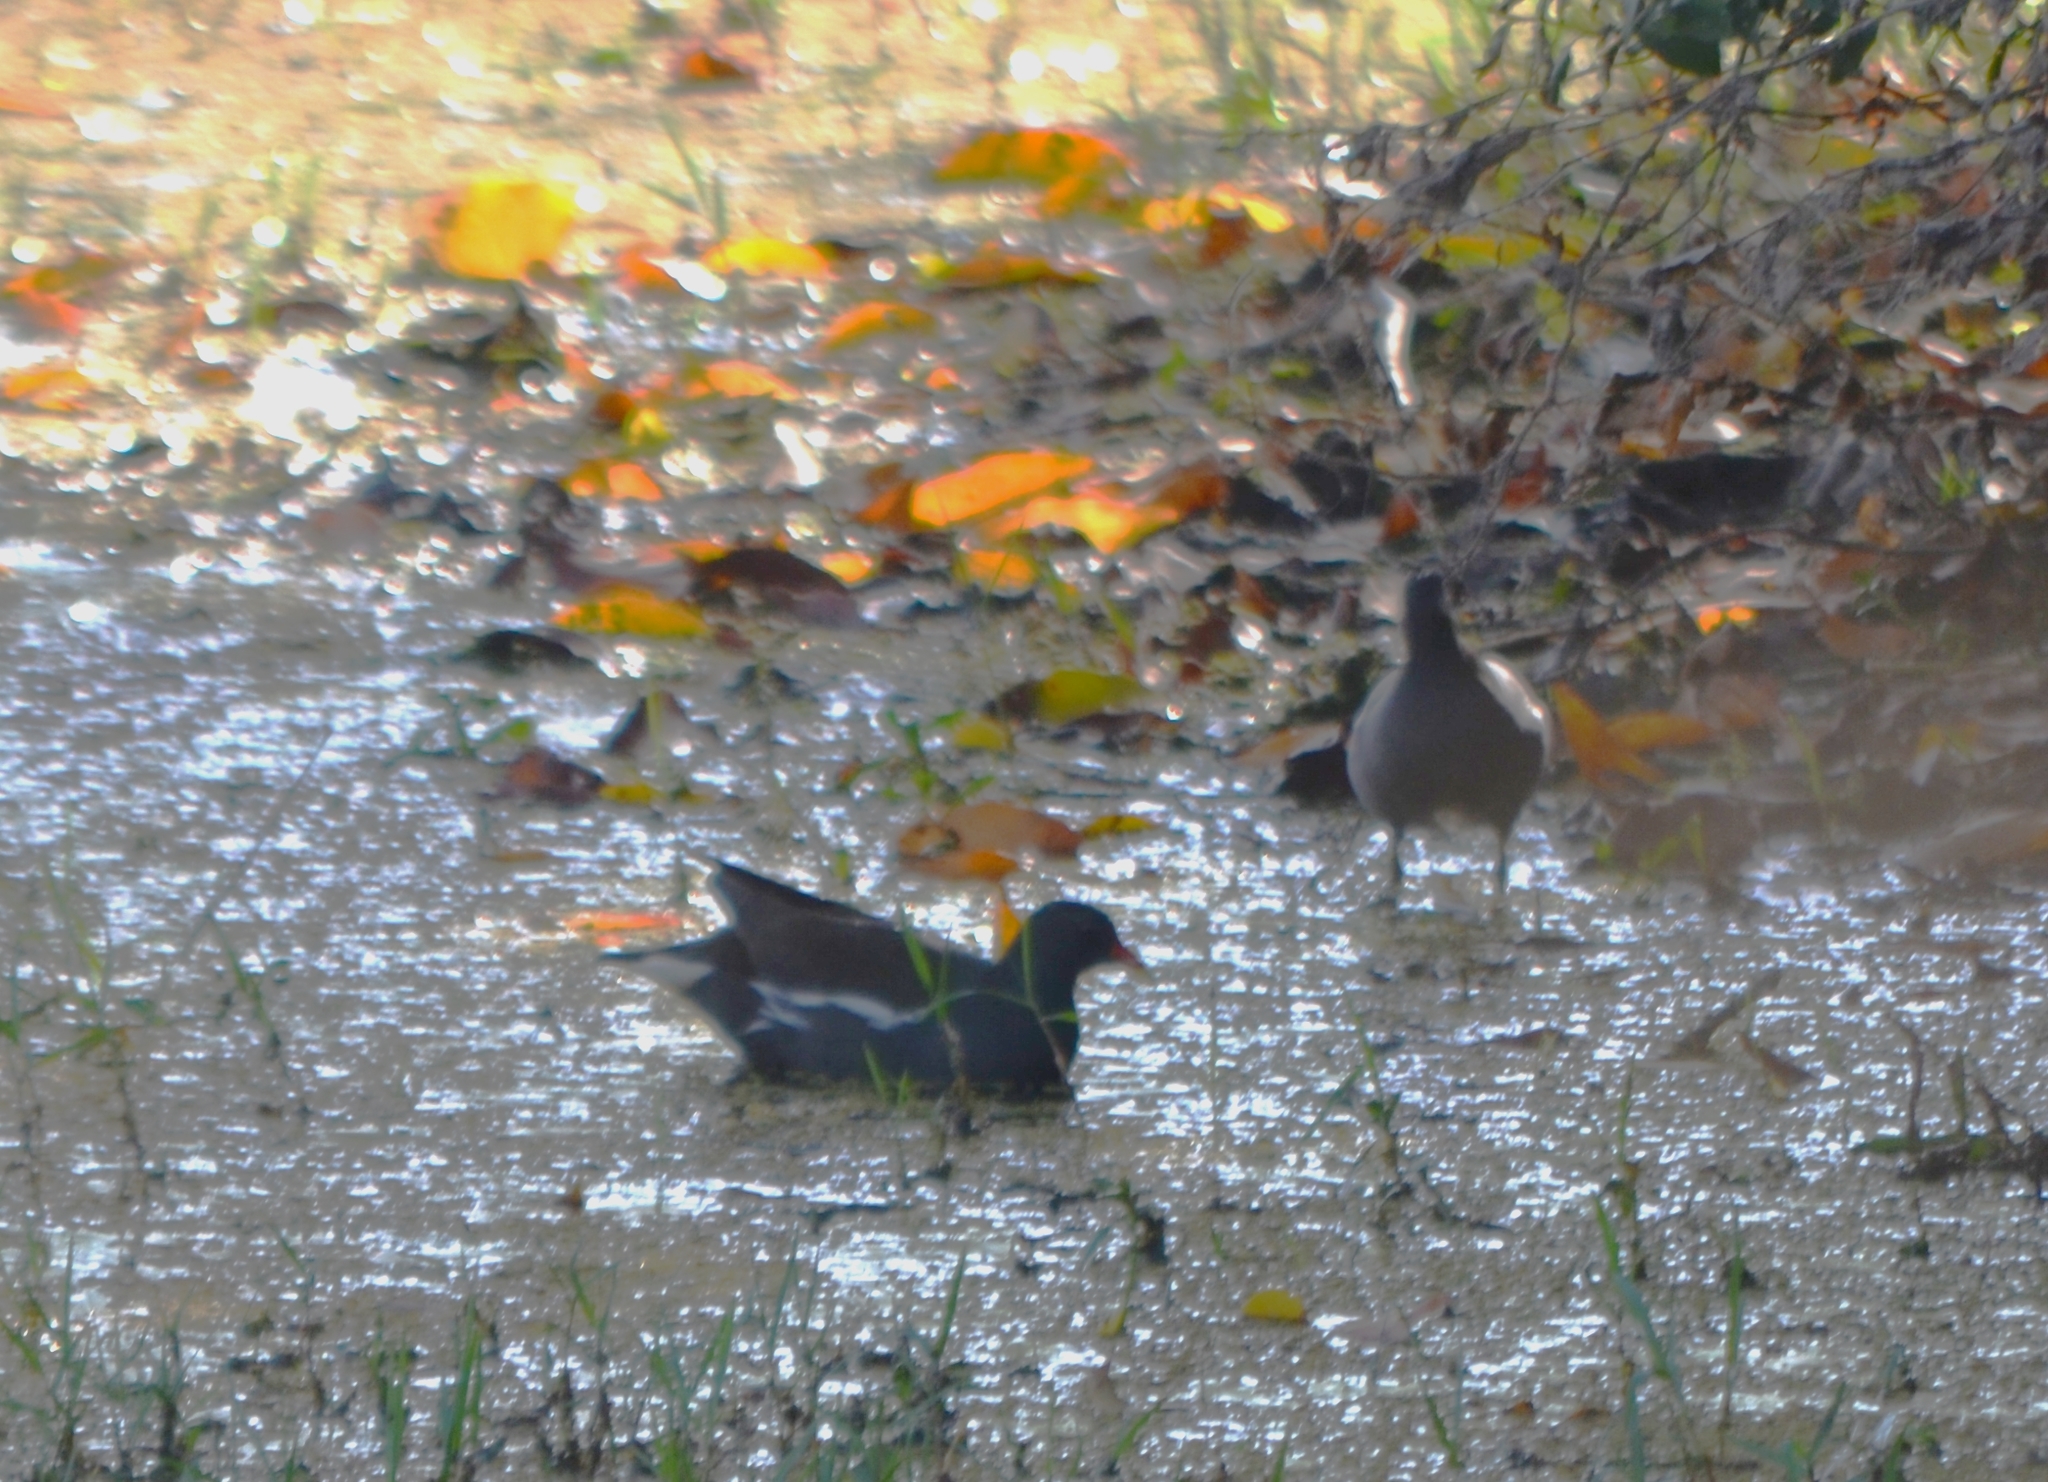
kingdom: Animalia
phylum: Chordata
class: Aves
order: Gruiformes
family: Rallidae
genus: Gallinula
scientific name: Gallinula chloropus
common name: Common moorhen
